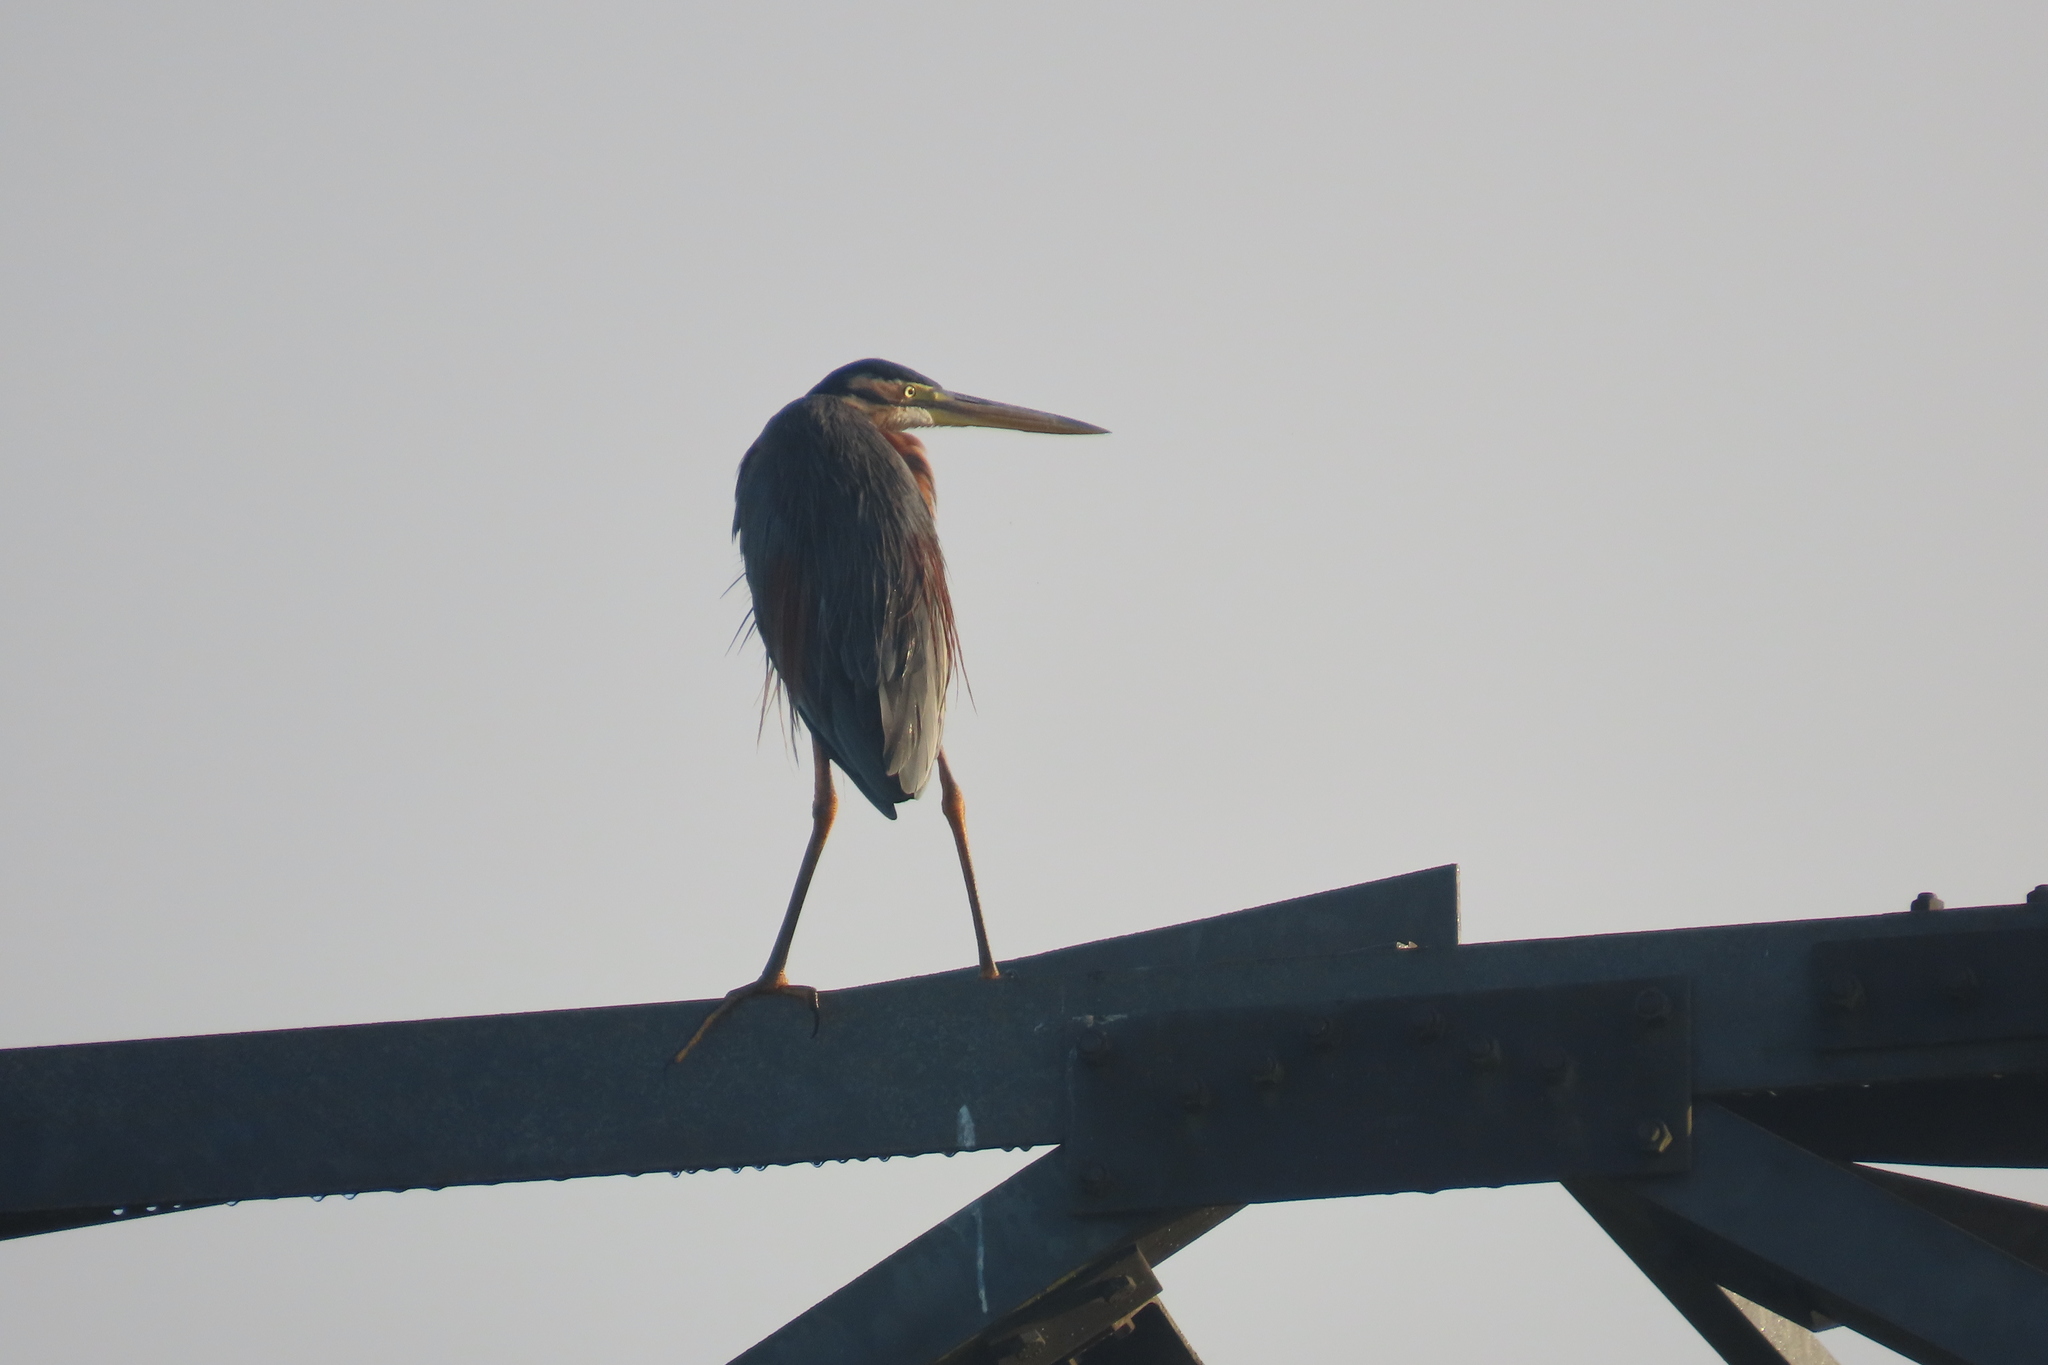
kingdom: Animalia
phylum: Chordata
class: Aves
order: Pelecaniformes
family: Ardeidae
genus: Ardea
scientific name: Ardea purpurea
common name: Purple heron
